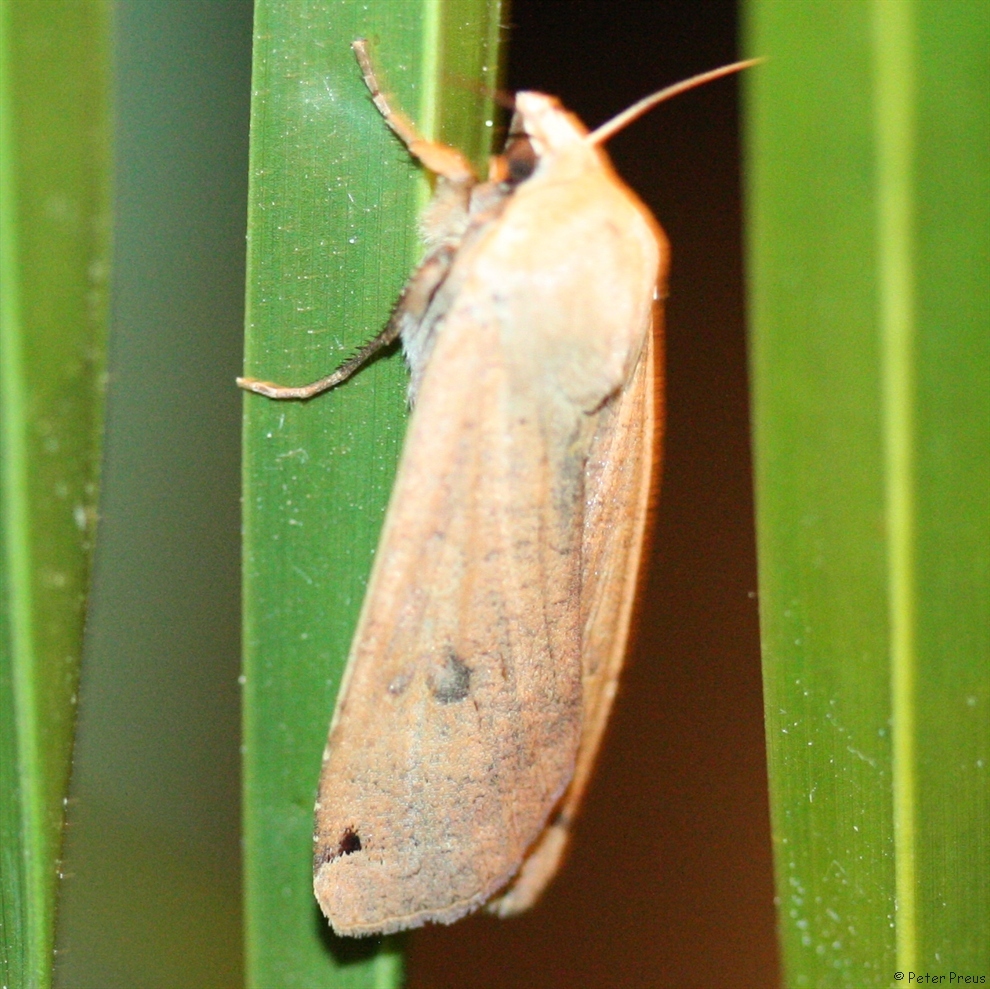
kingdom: Animalia
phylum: Arthropoda
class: Insecta
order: Lepidoptera
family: Noctuidae
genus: Noctua
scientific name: Noctua pronuba
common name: Large yellow underwing
